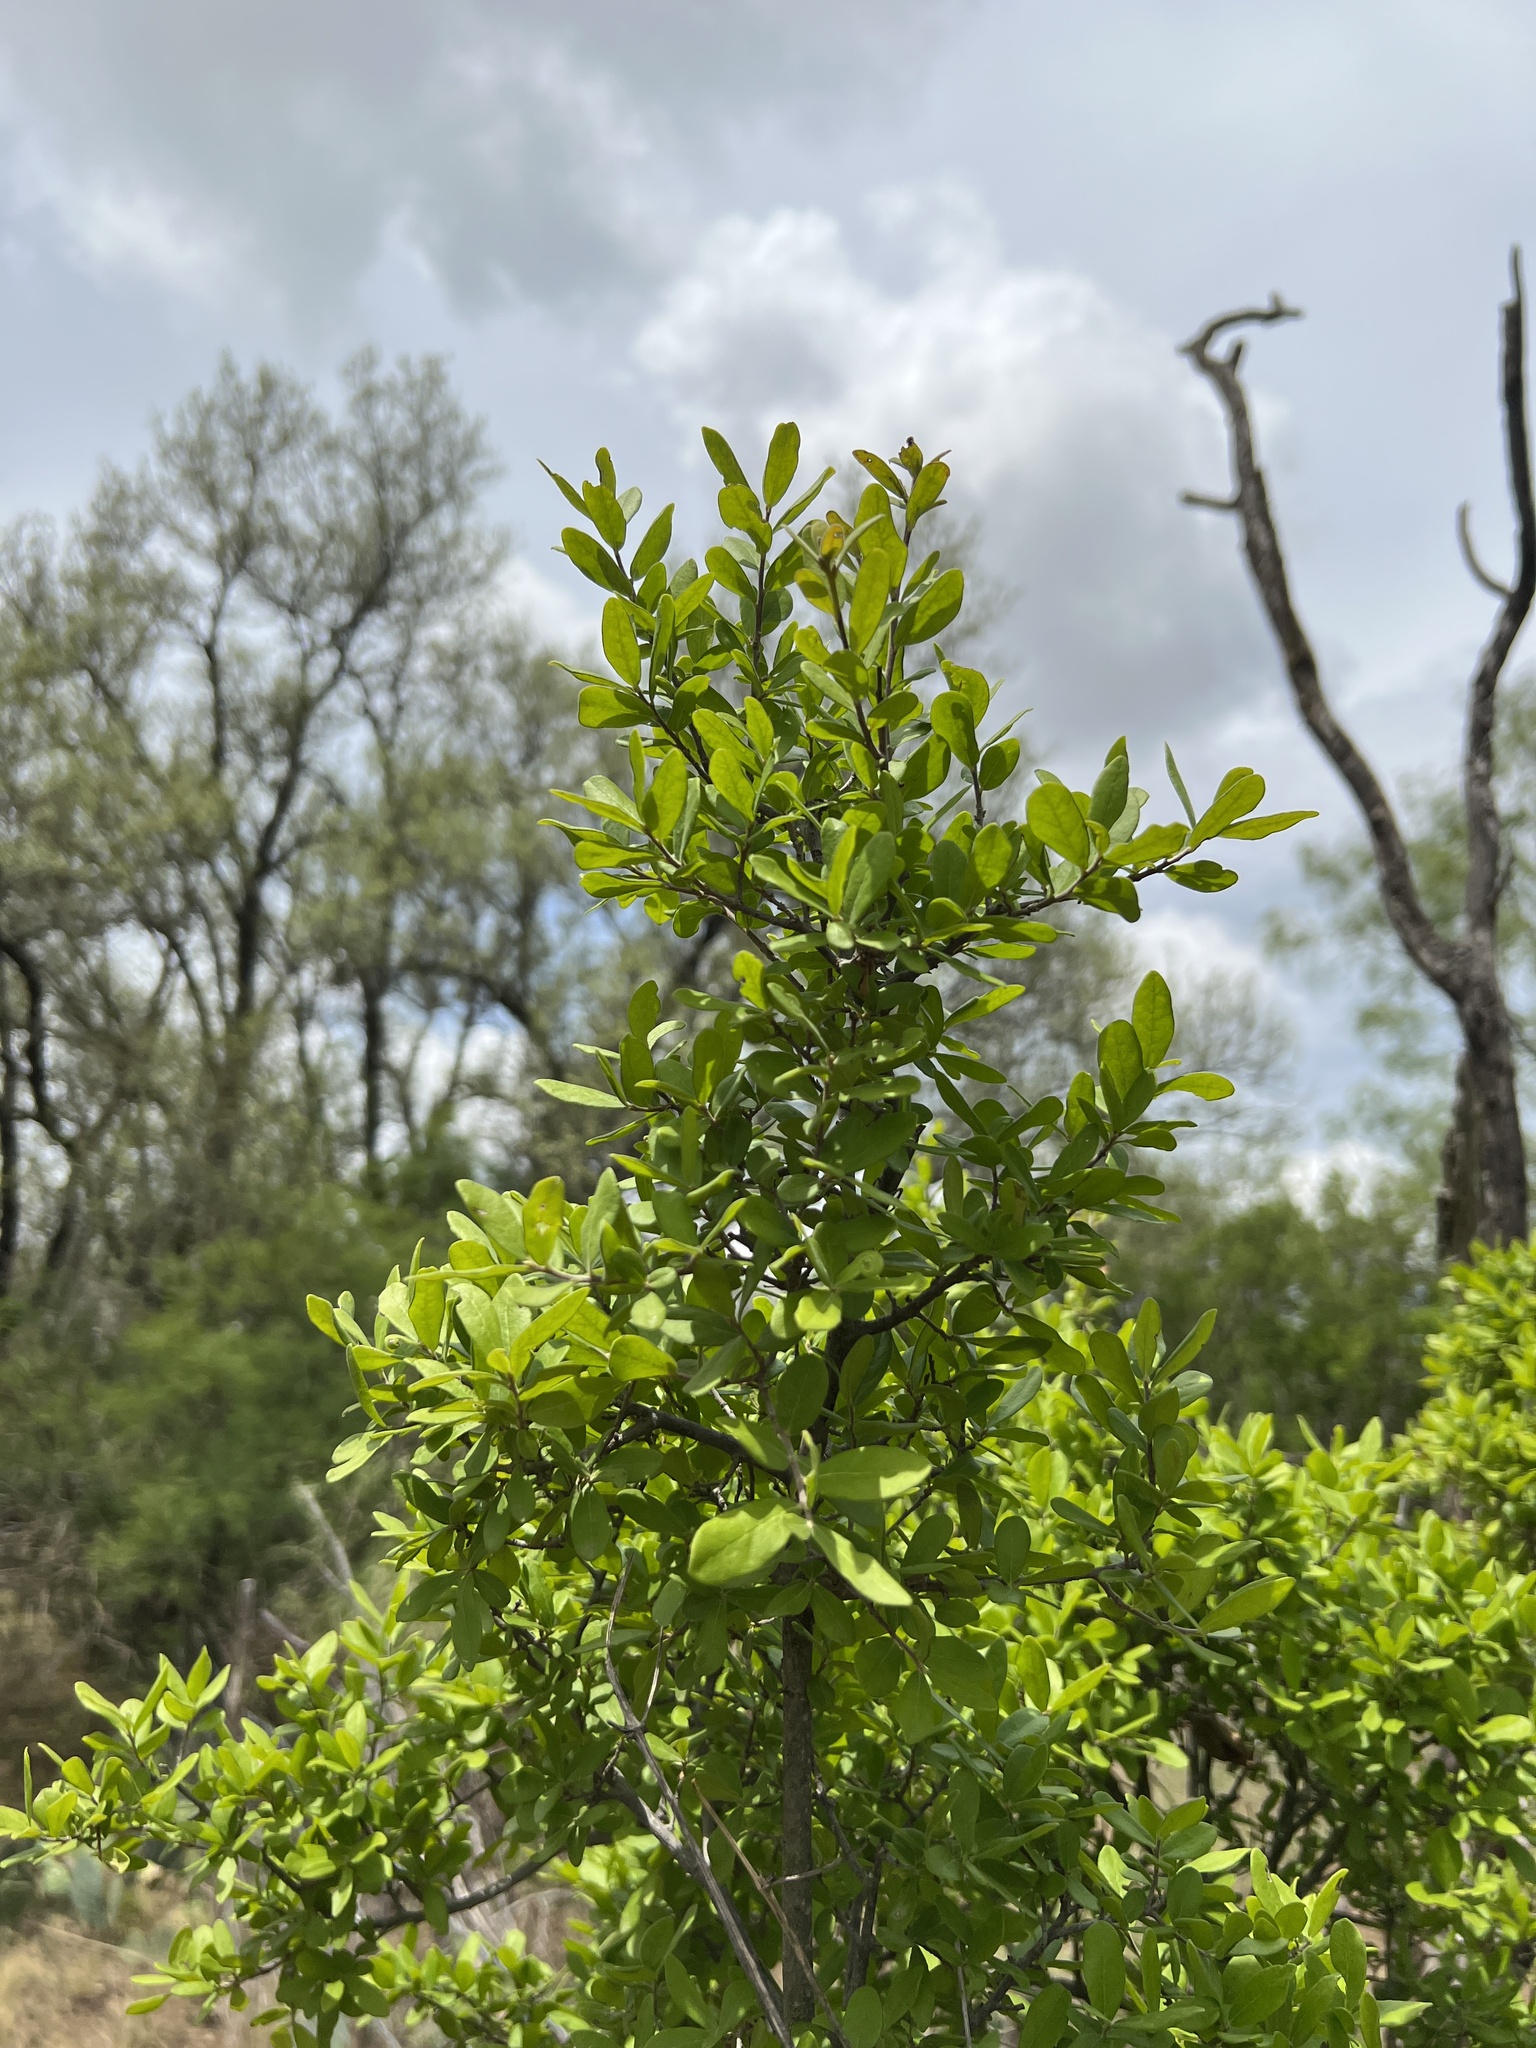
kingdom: Plantae
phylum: Tracheophyta
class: Magnoliopsida
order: Ericales
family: Ebenaceae
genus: Diospyros
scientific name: Diospyros texana
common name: Texas persimmon
